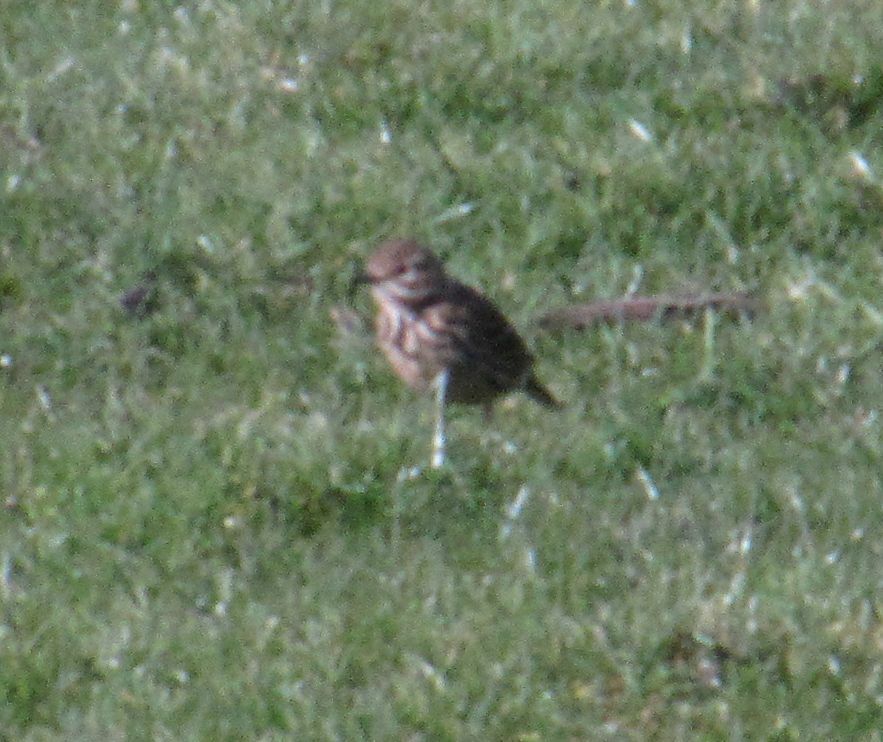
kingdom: Animalia
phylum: Chordata
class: Aves
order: Passeriformes
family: Motacillidae
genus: Anthus
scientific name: Anthus pratensis
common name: Meadow pipit
